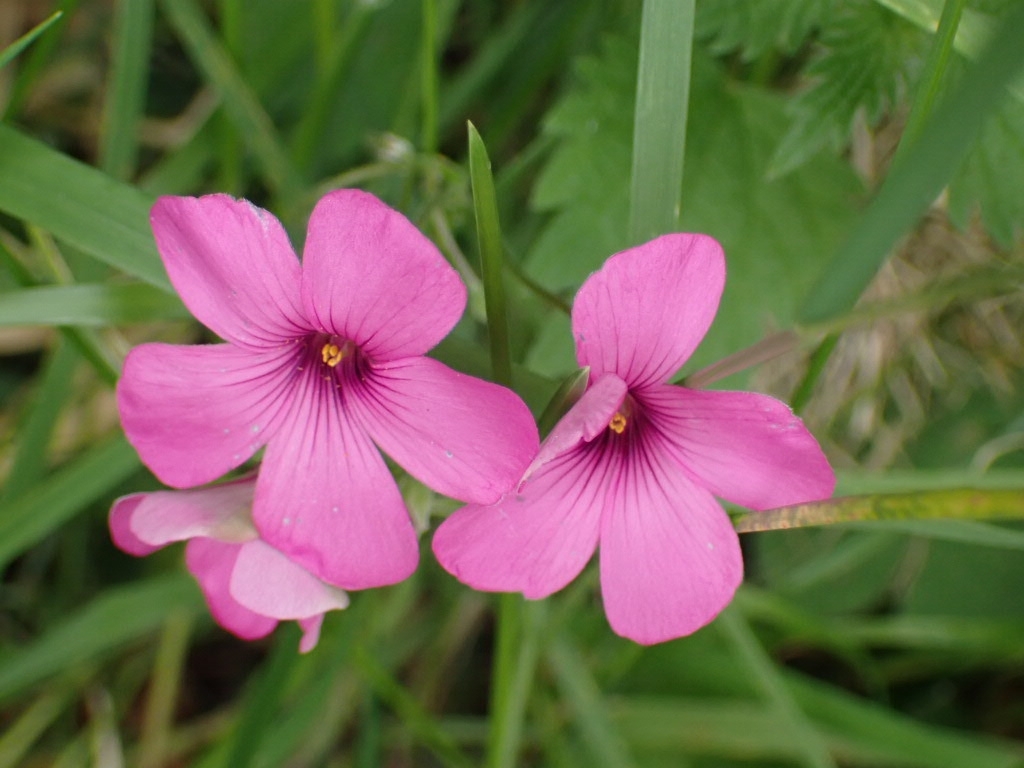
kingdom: Plantae
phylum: Tracheophyta
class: Magnoliopsida
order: Oxalidales
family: Oxalidaceae
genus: Oxalis
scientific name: Oxalis articulata
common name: Pink-sorrel
